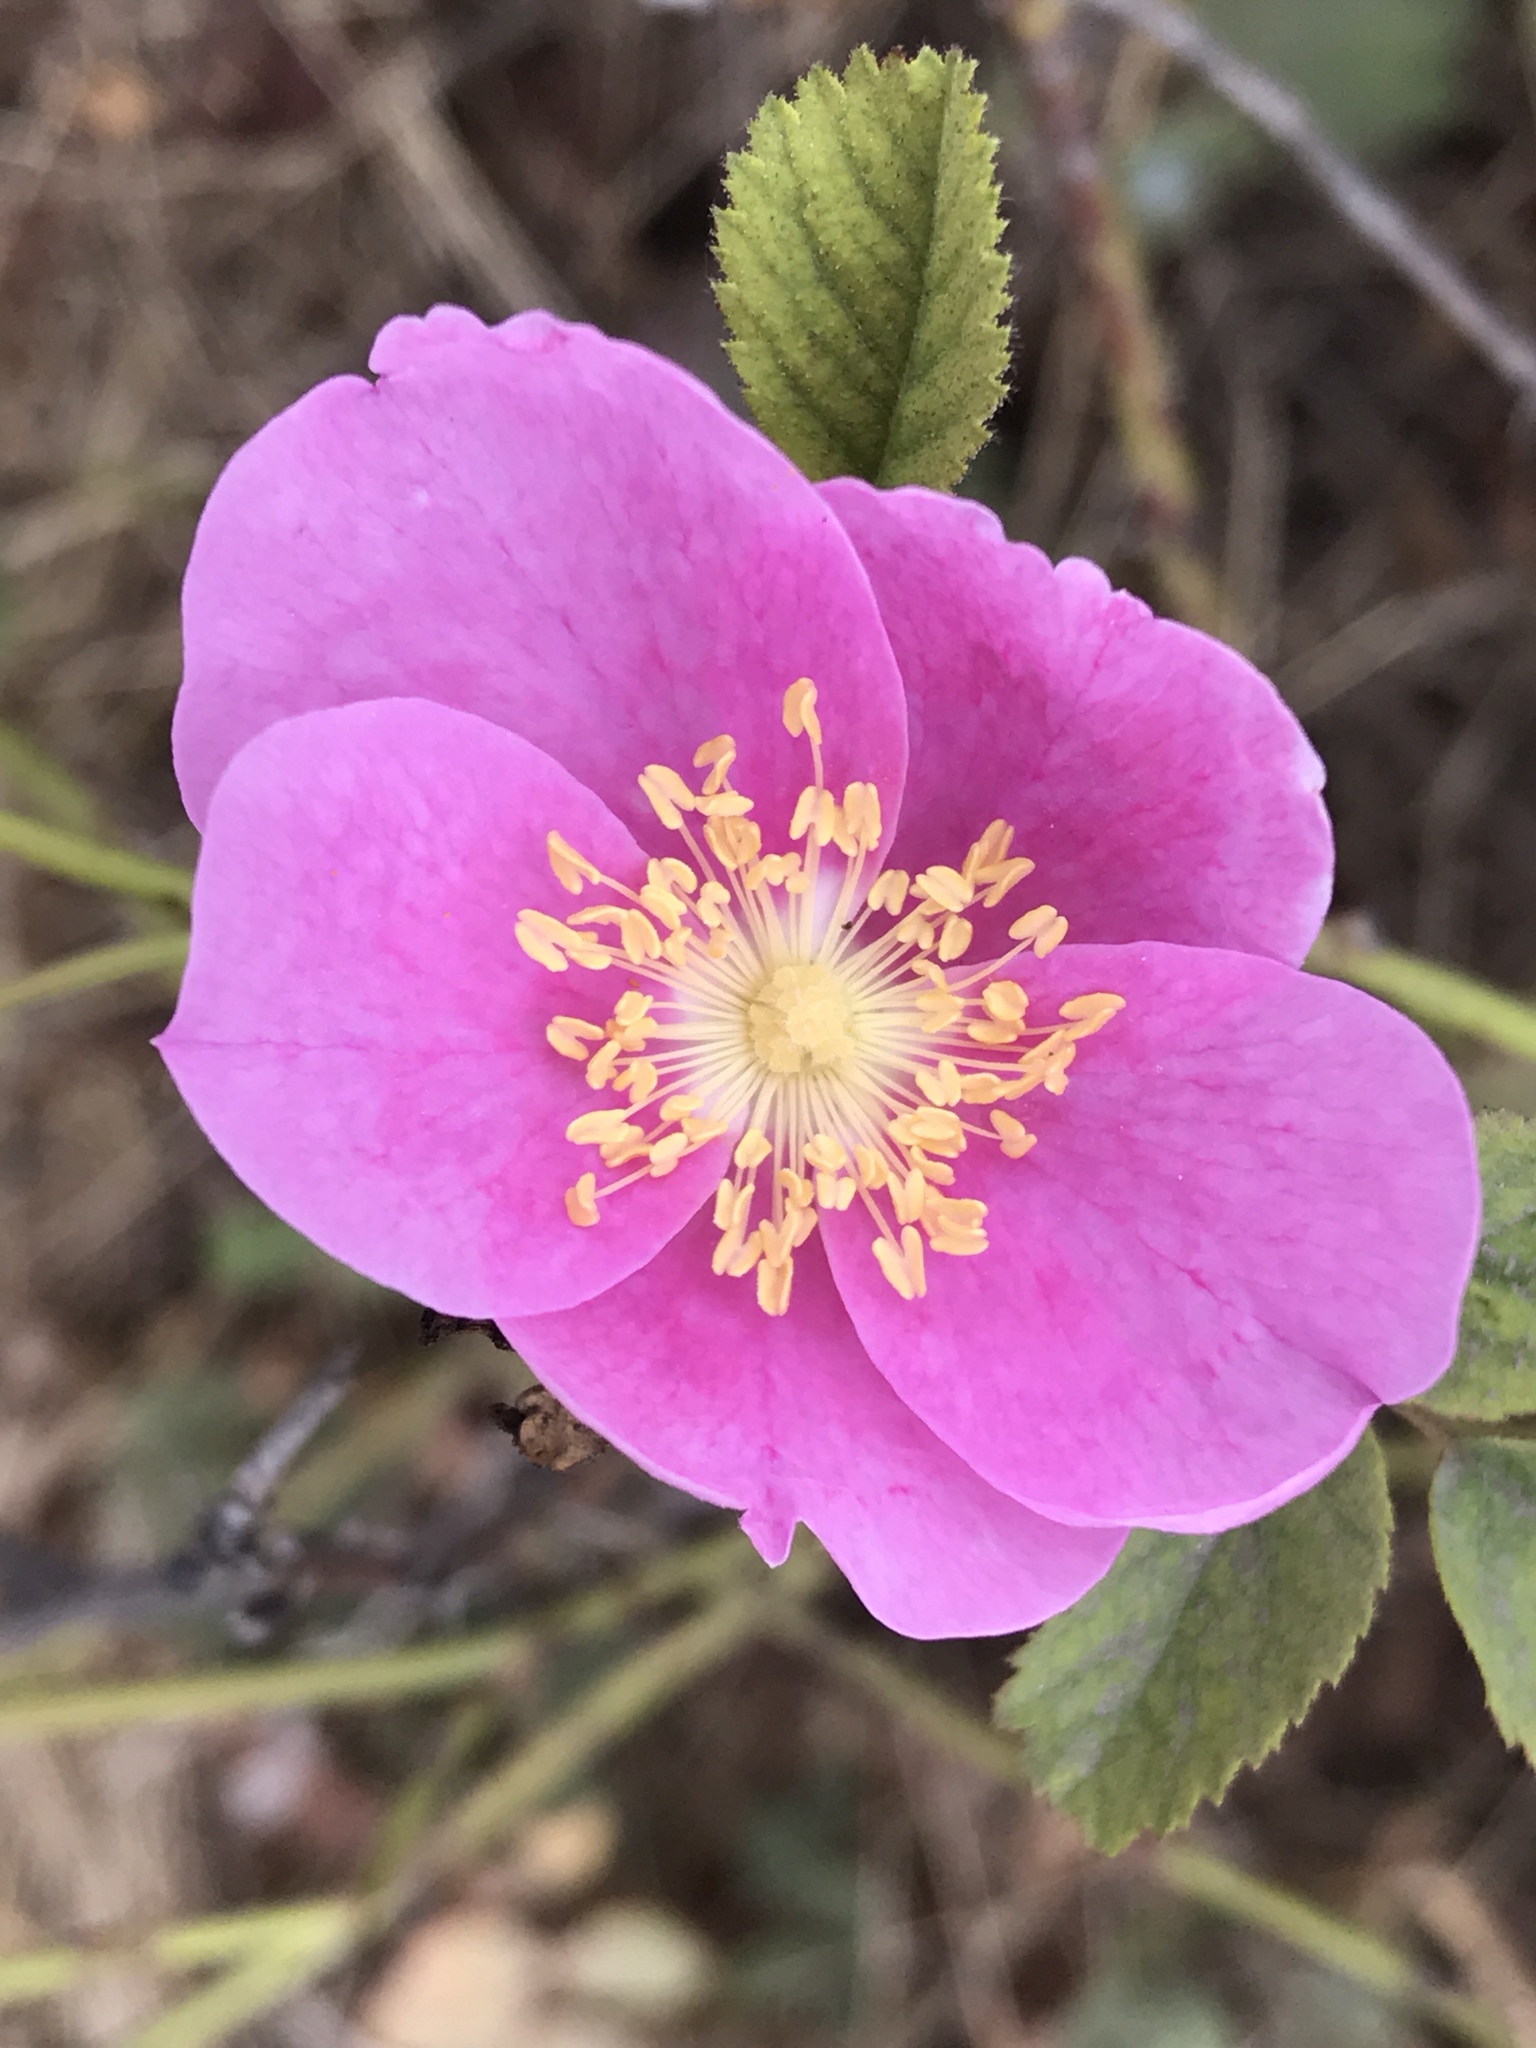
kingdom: Plantae
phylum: Tracheophyta
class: Magnoliopsida
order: Rosales
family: Rosaceae
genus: Rosa
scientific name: Rosa californica
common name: California rose
